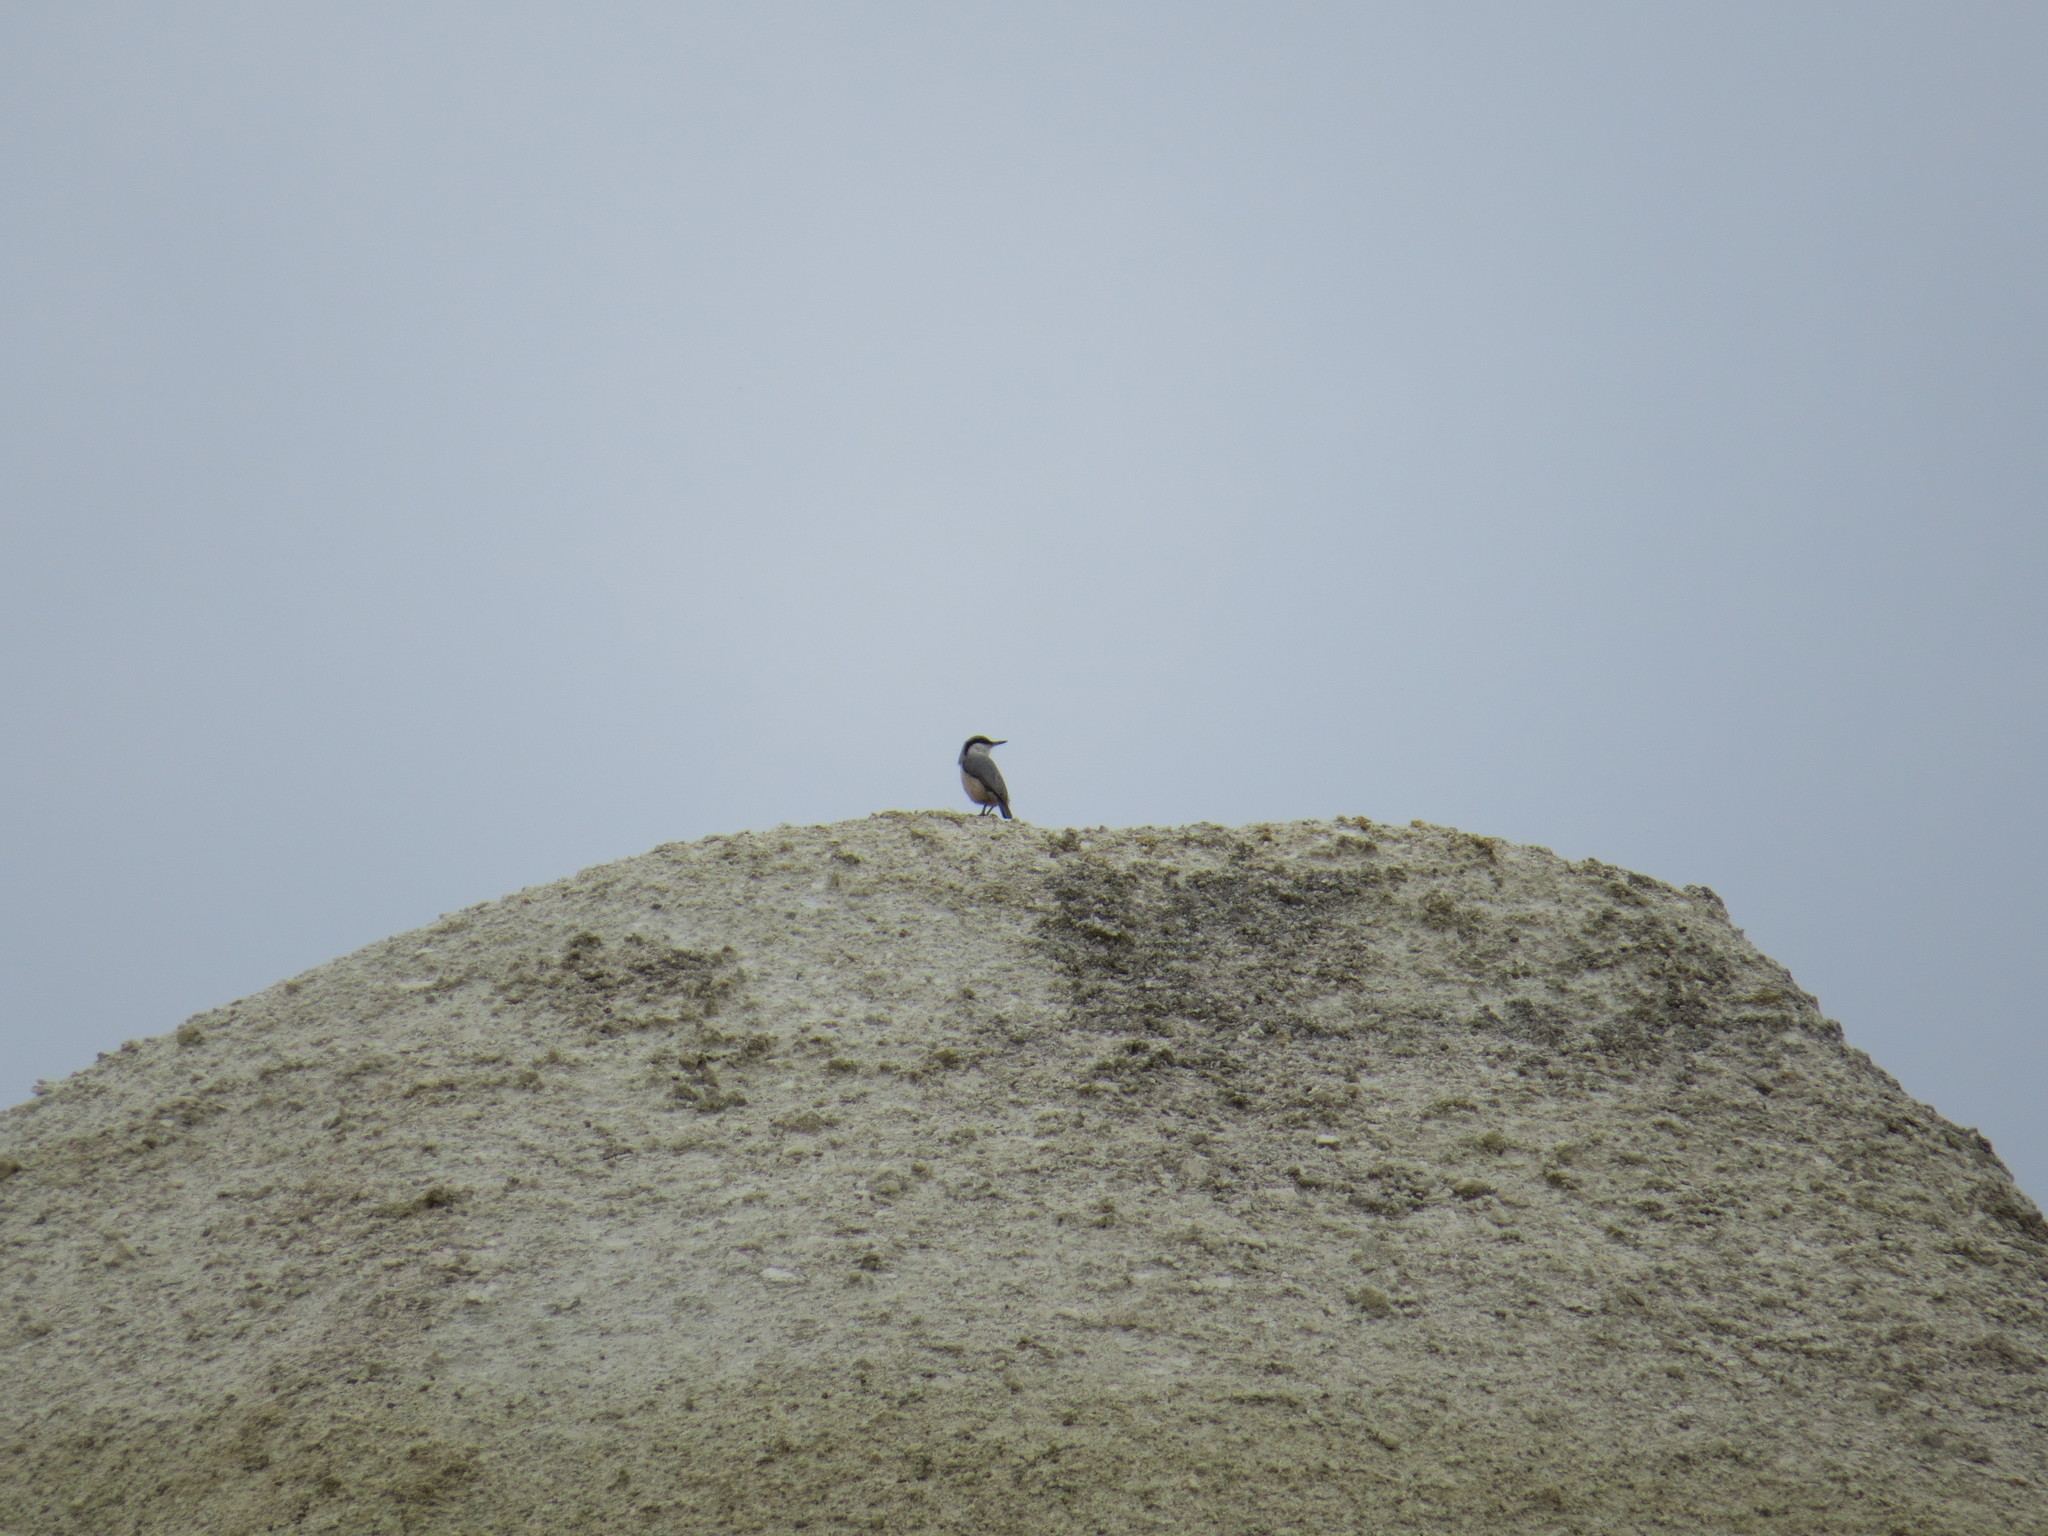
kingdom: Animalia
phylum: Chordata
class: Aves
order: Passeriformes
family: Sittidae
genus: Sitta
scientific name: Sitta neumayer
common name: Western rock nuthatch
